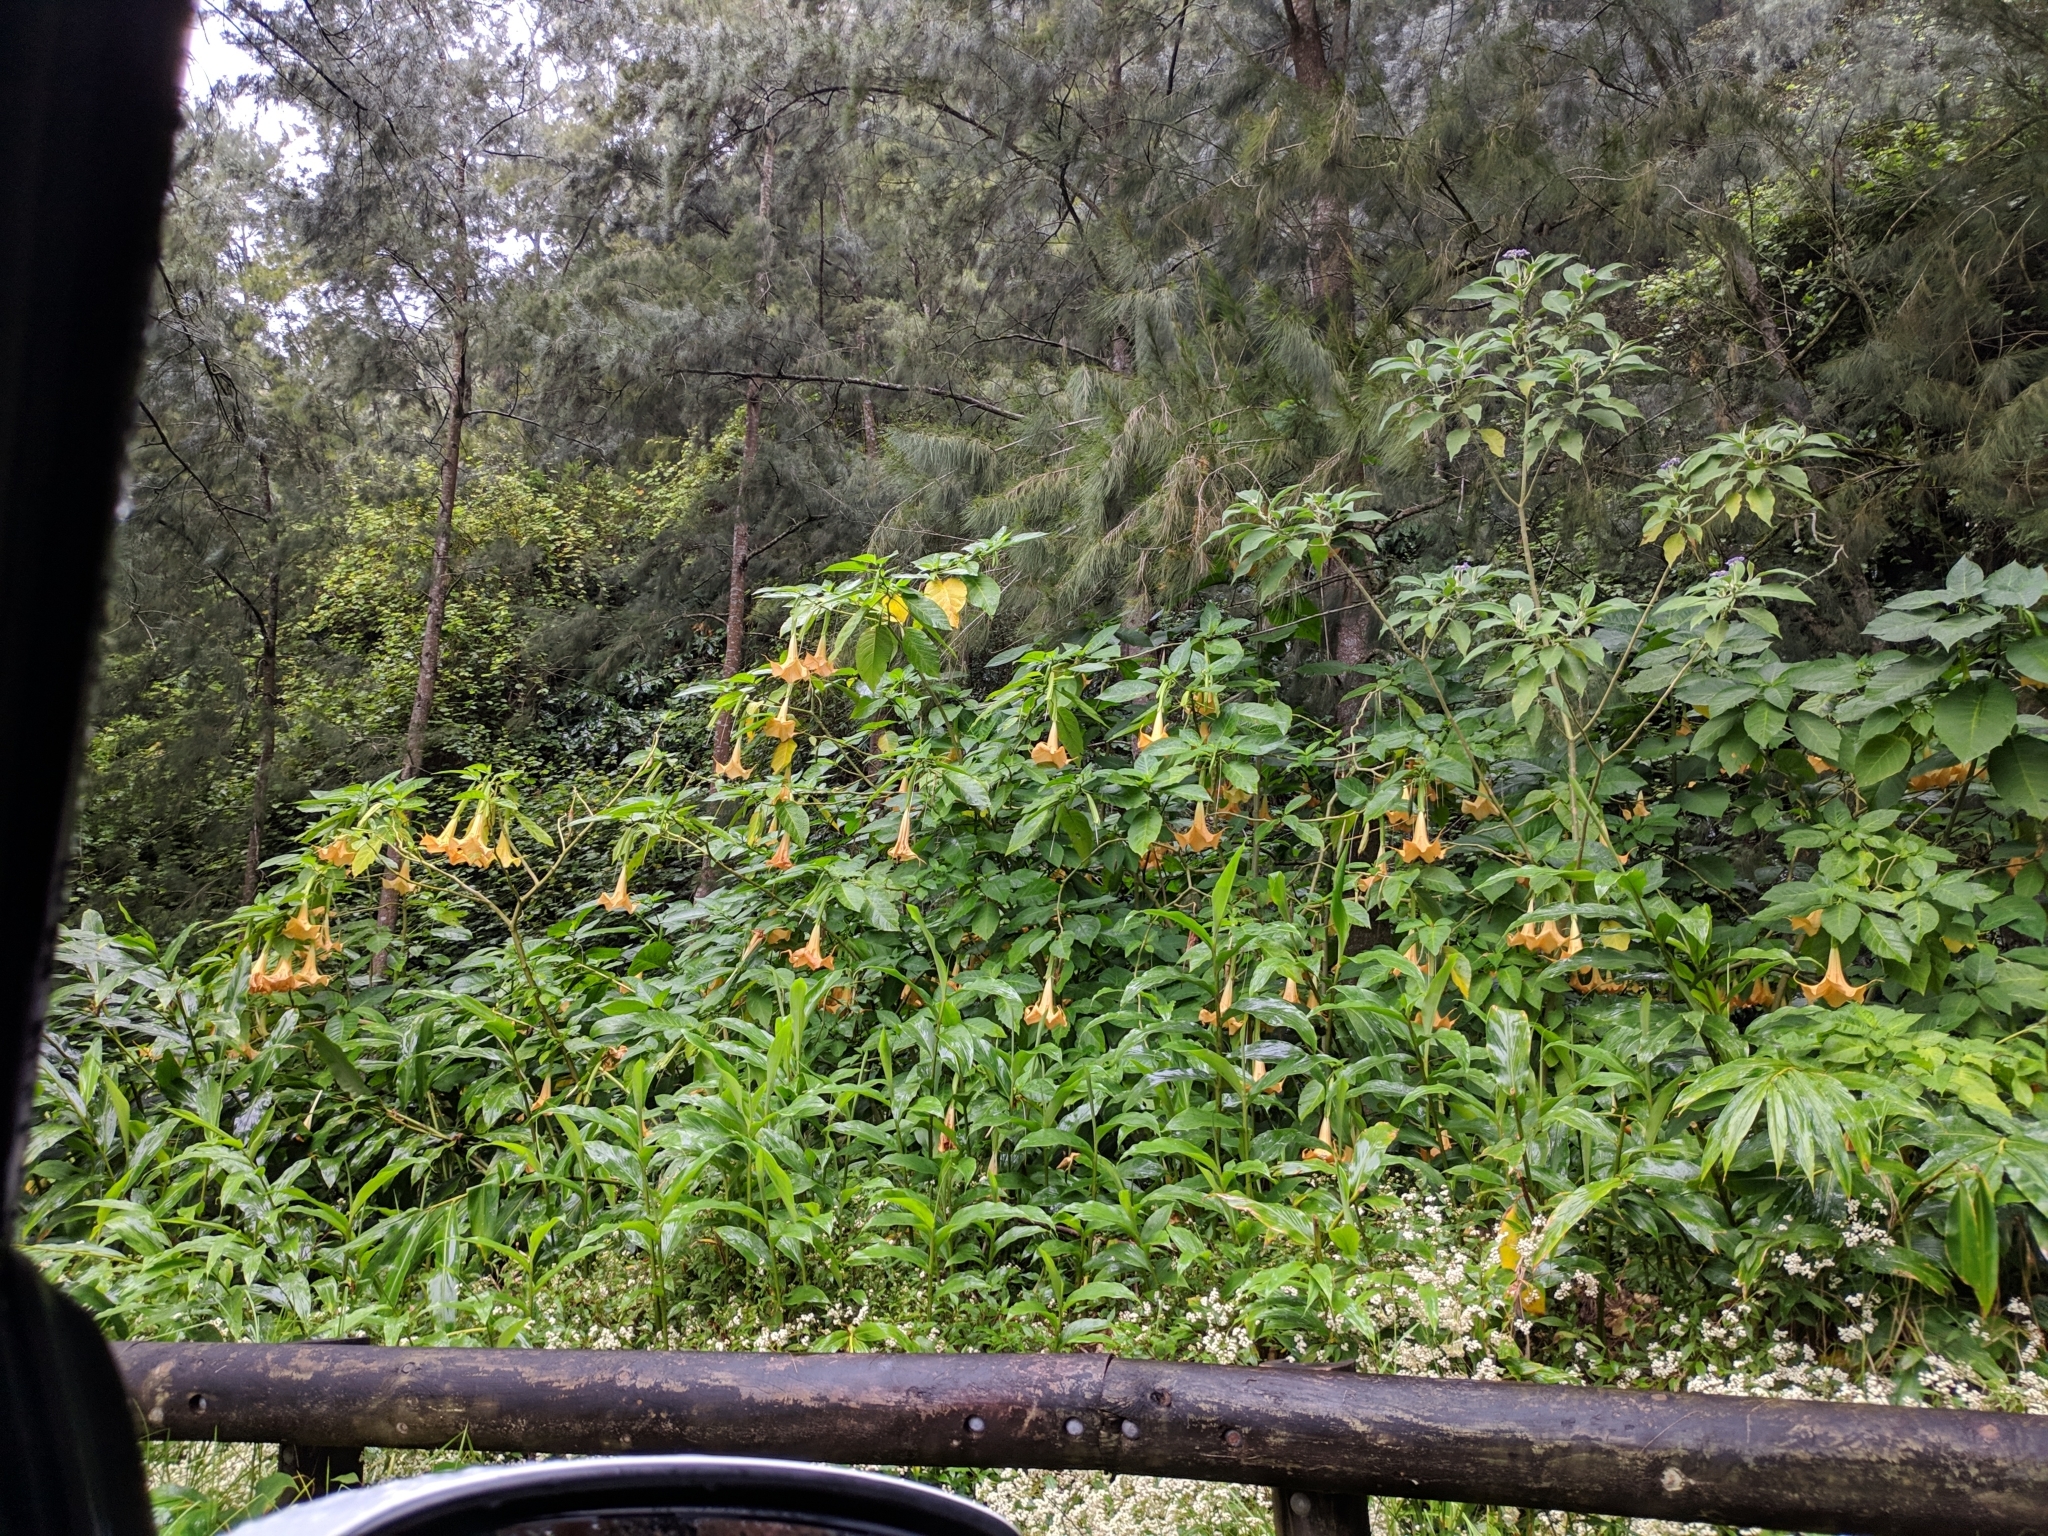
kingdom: Plantae
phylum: Tracheophyta
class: Magnoliopsida
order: Solanales
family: Solanaceae
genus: Brugmansia
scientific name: Brugmansia aurea
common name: Yellow angel's-trumpet
